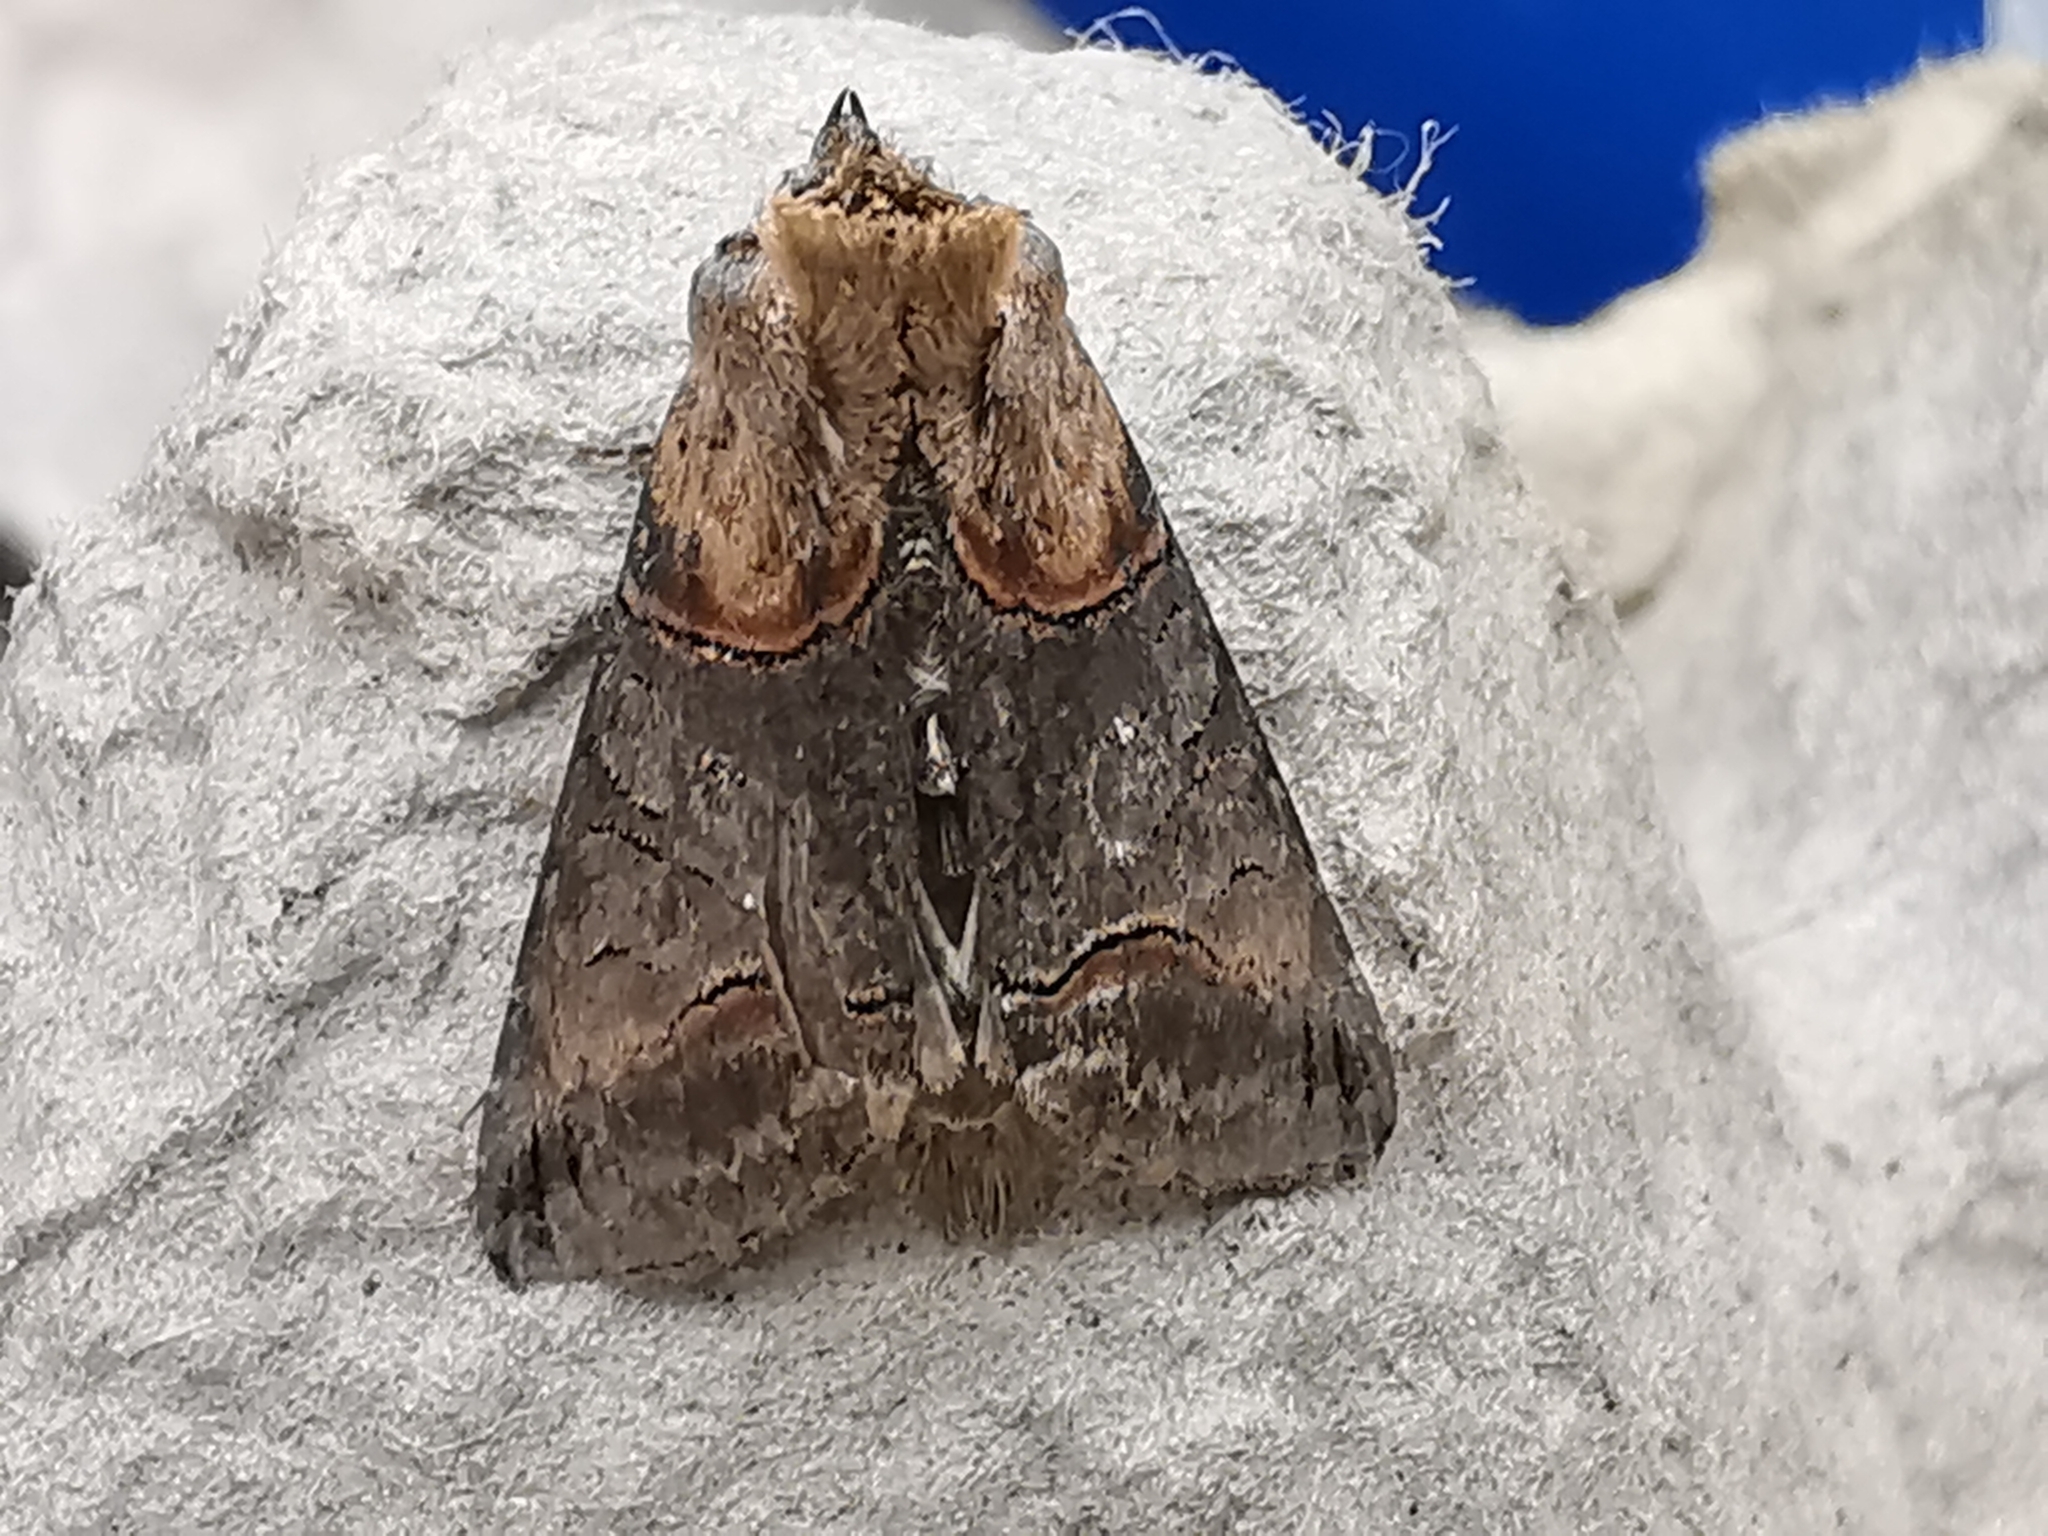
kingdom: Animalia
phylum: Arthropoda
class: Insecta
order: Lepidoptera
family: Noctuidae
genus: Abrostola
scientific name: Abrostola triplasia
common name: Dark spectacle
